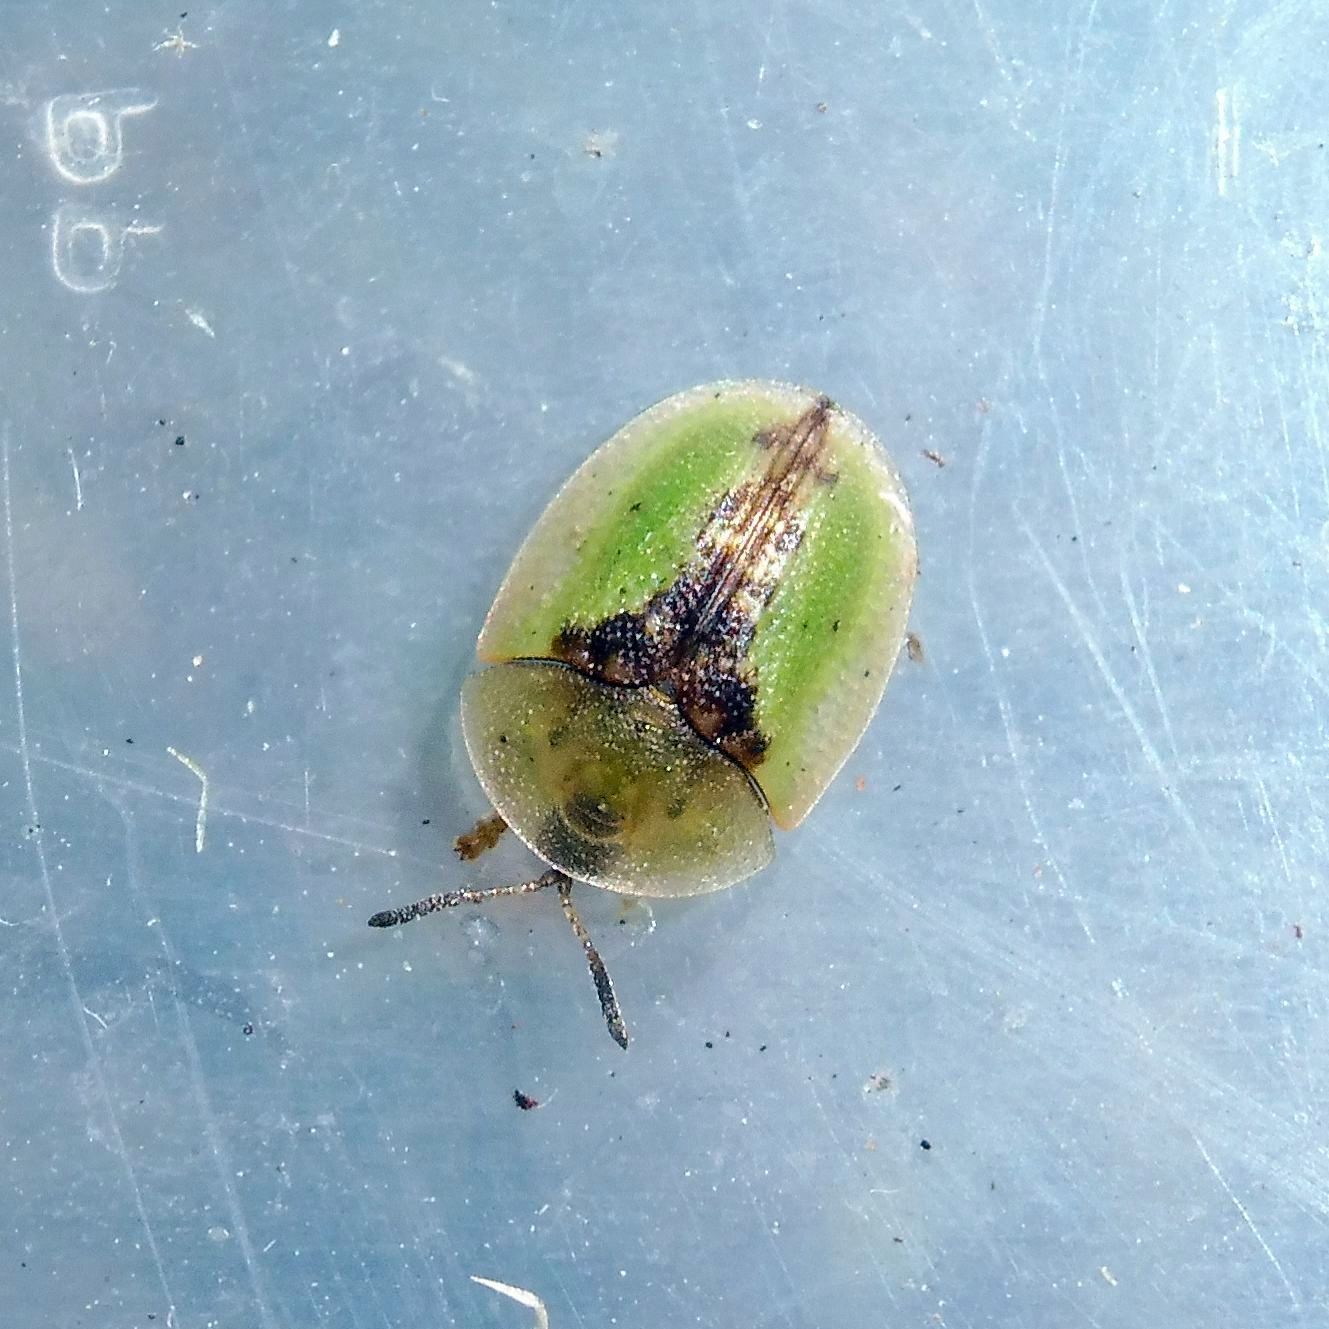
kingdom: Animalia
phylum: Arthropoda
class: Insecta
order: Coleoptera
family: Chrysomelidae
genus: Cassida
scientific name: Cassida vibex
